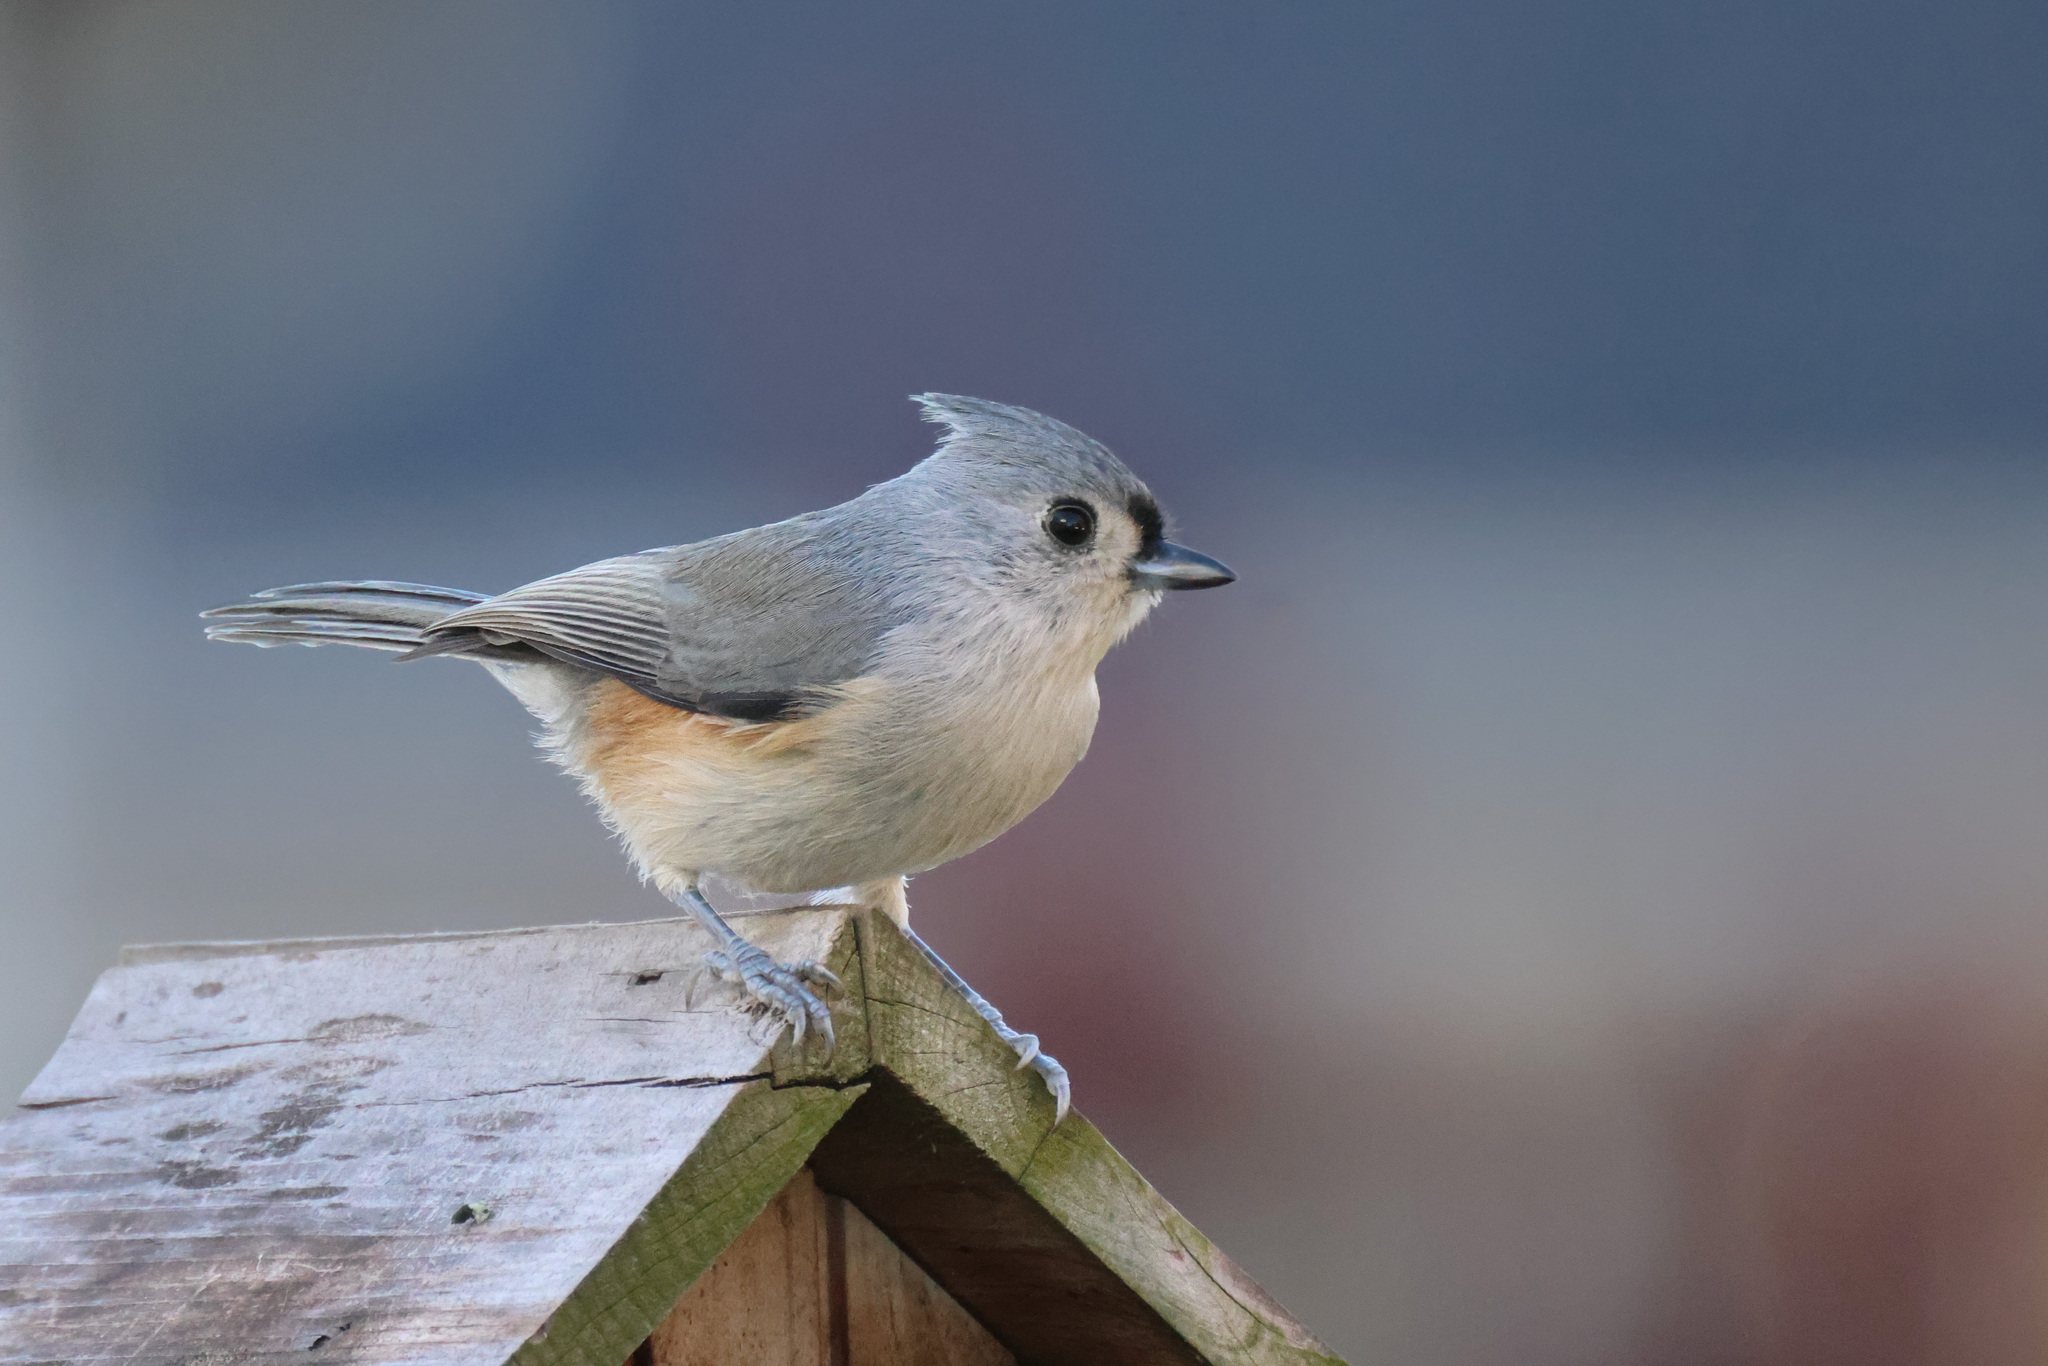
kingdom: Animalia
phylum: Chordata
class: Aves
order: Passeriformes
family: Paridae
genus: Baeolophus
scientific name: Baeolophus bicolor
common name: Tufted titmouse
